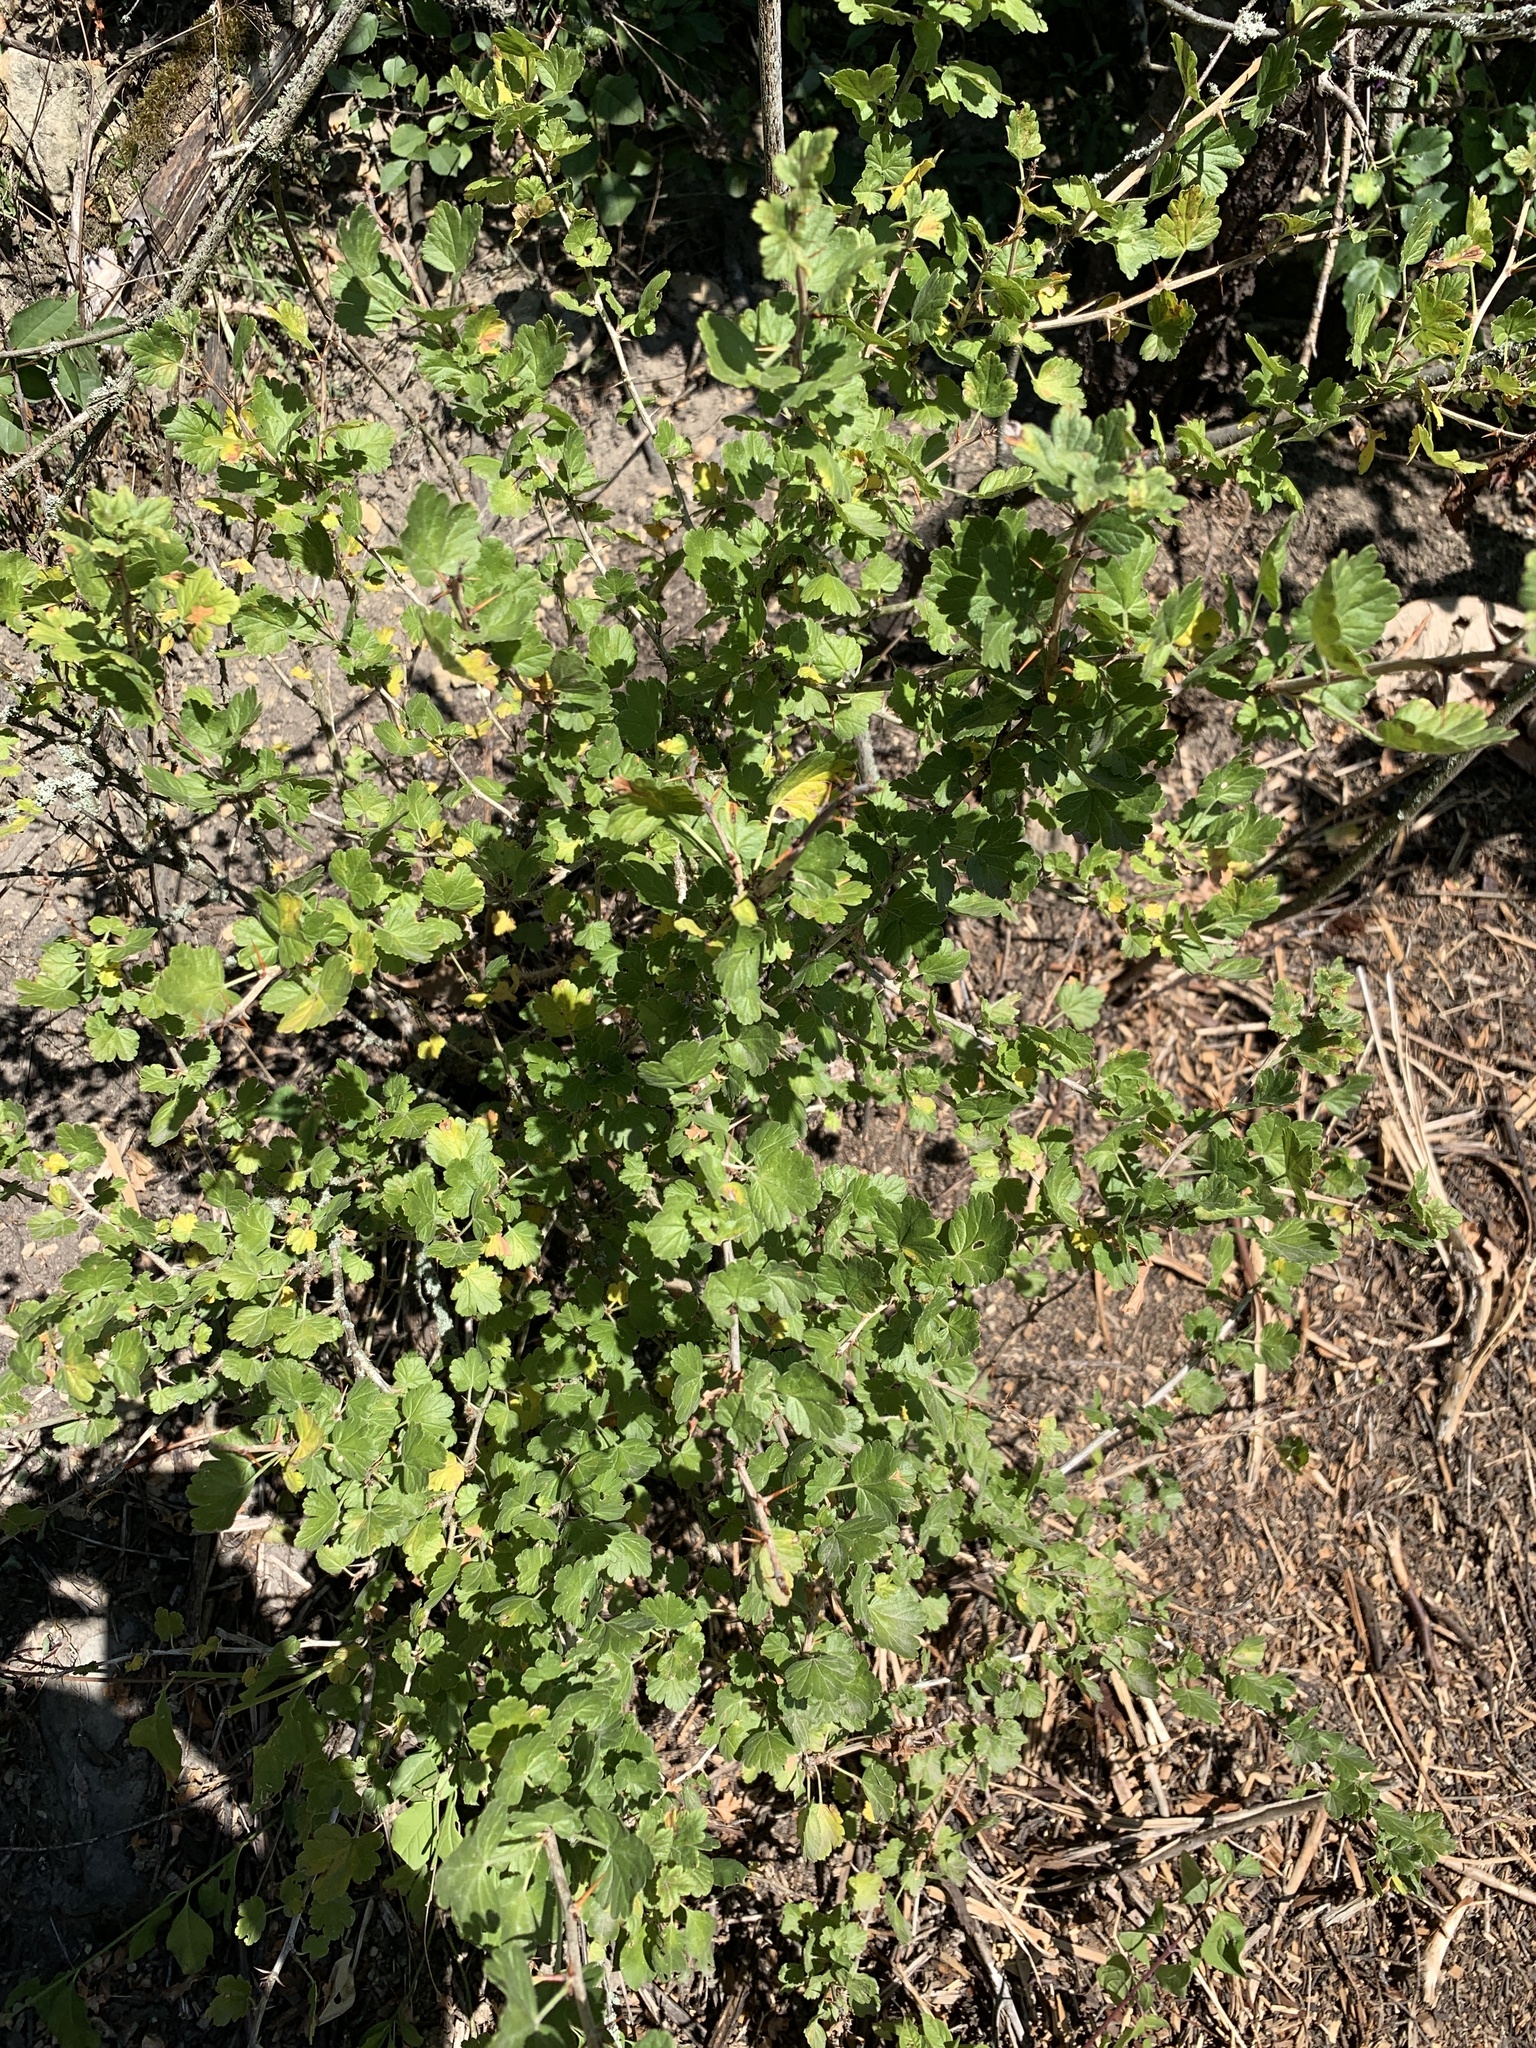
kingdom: Plantae
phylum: Tracheophyta
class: Magnoliopsida
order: Saxifragales
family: Grossulariaceae
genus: Ribes
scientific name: Ribes uva-crispa
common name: Gooseberry
